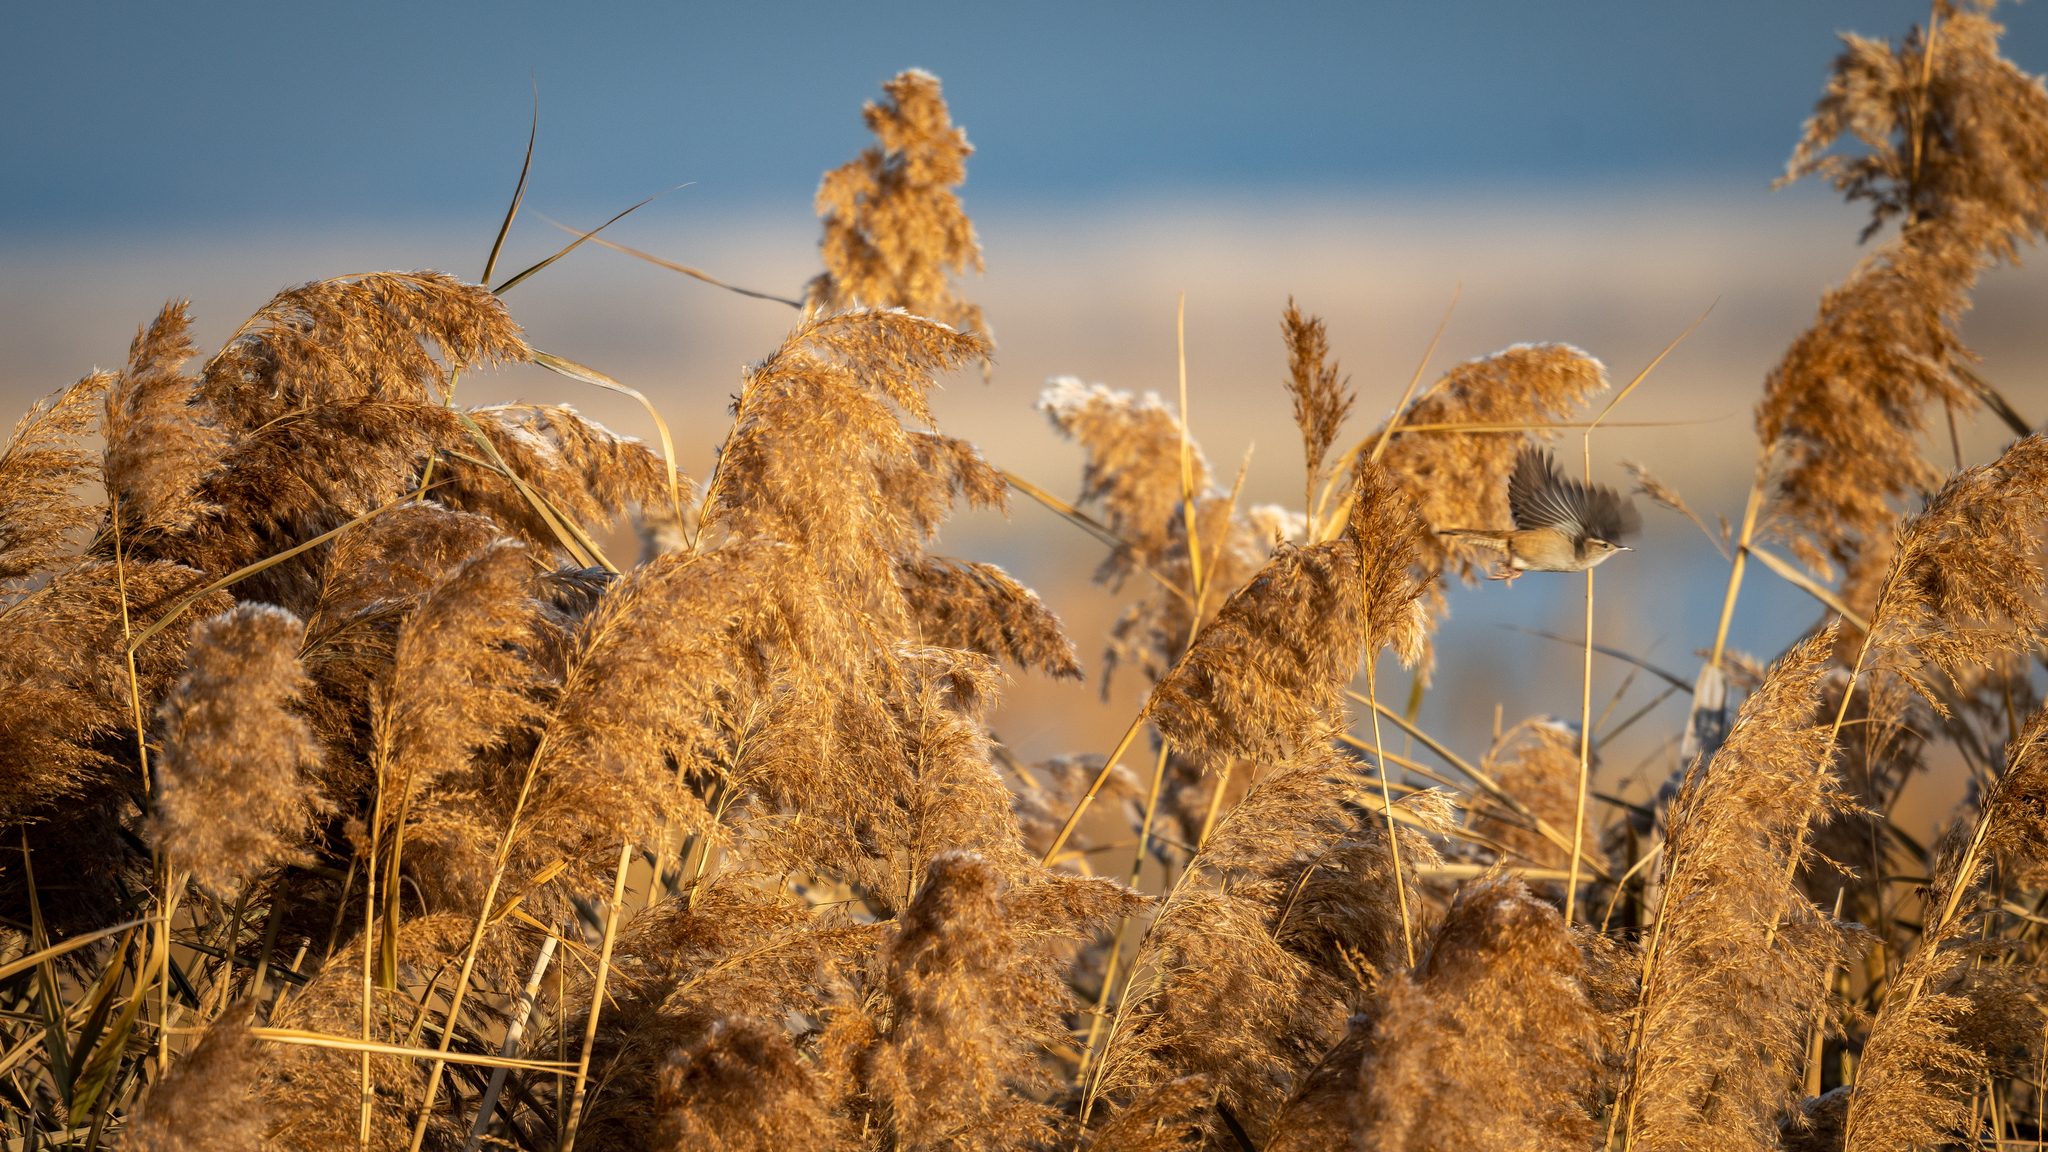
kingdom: Animalia
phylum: Chordata
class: Aves
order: Passeriformes
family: Troglodytidae
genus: Cistothorus
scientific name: Cistothorus palustris
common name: Marsh wren
